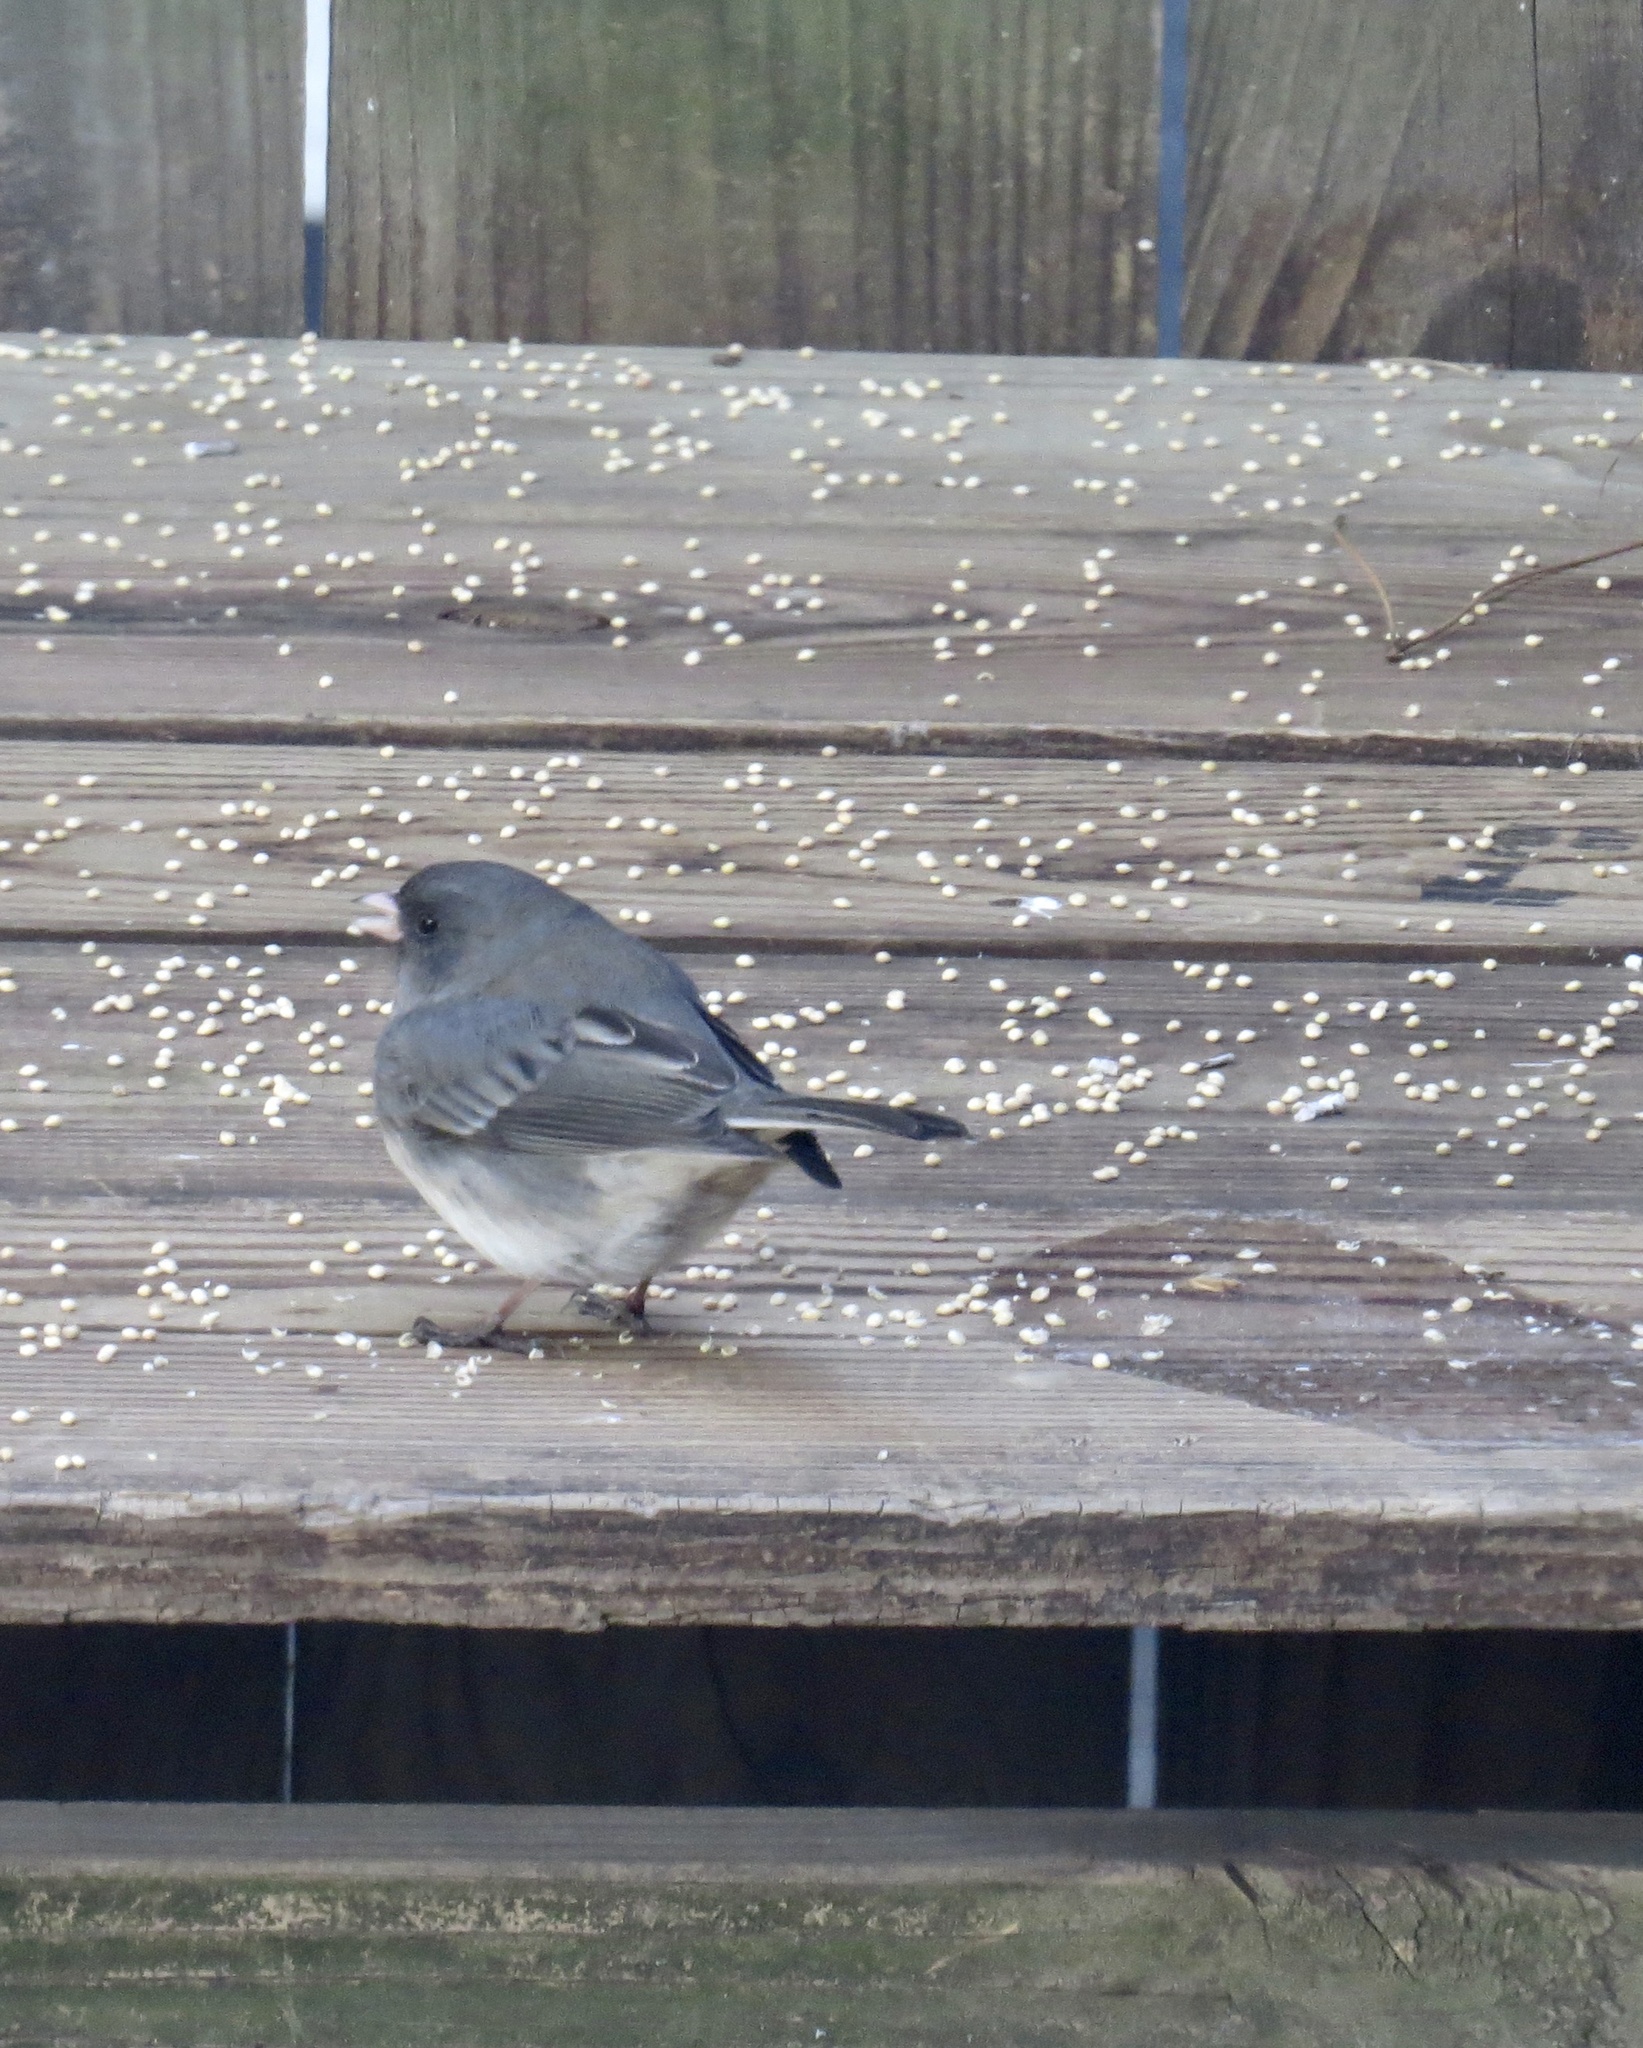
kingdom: Animalia
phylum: Chordata
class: Aves
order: Passeriformes
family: Passerellidae
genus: Junco
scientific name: Junco hyemalis
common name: Dark-eyed junco
